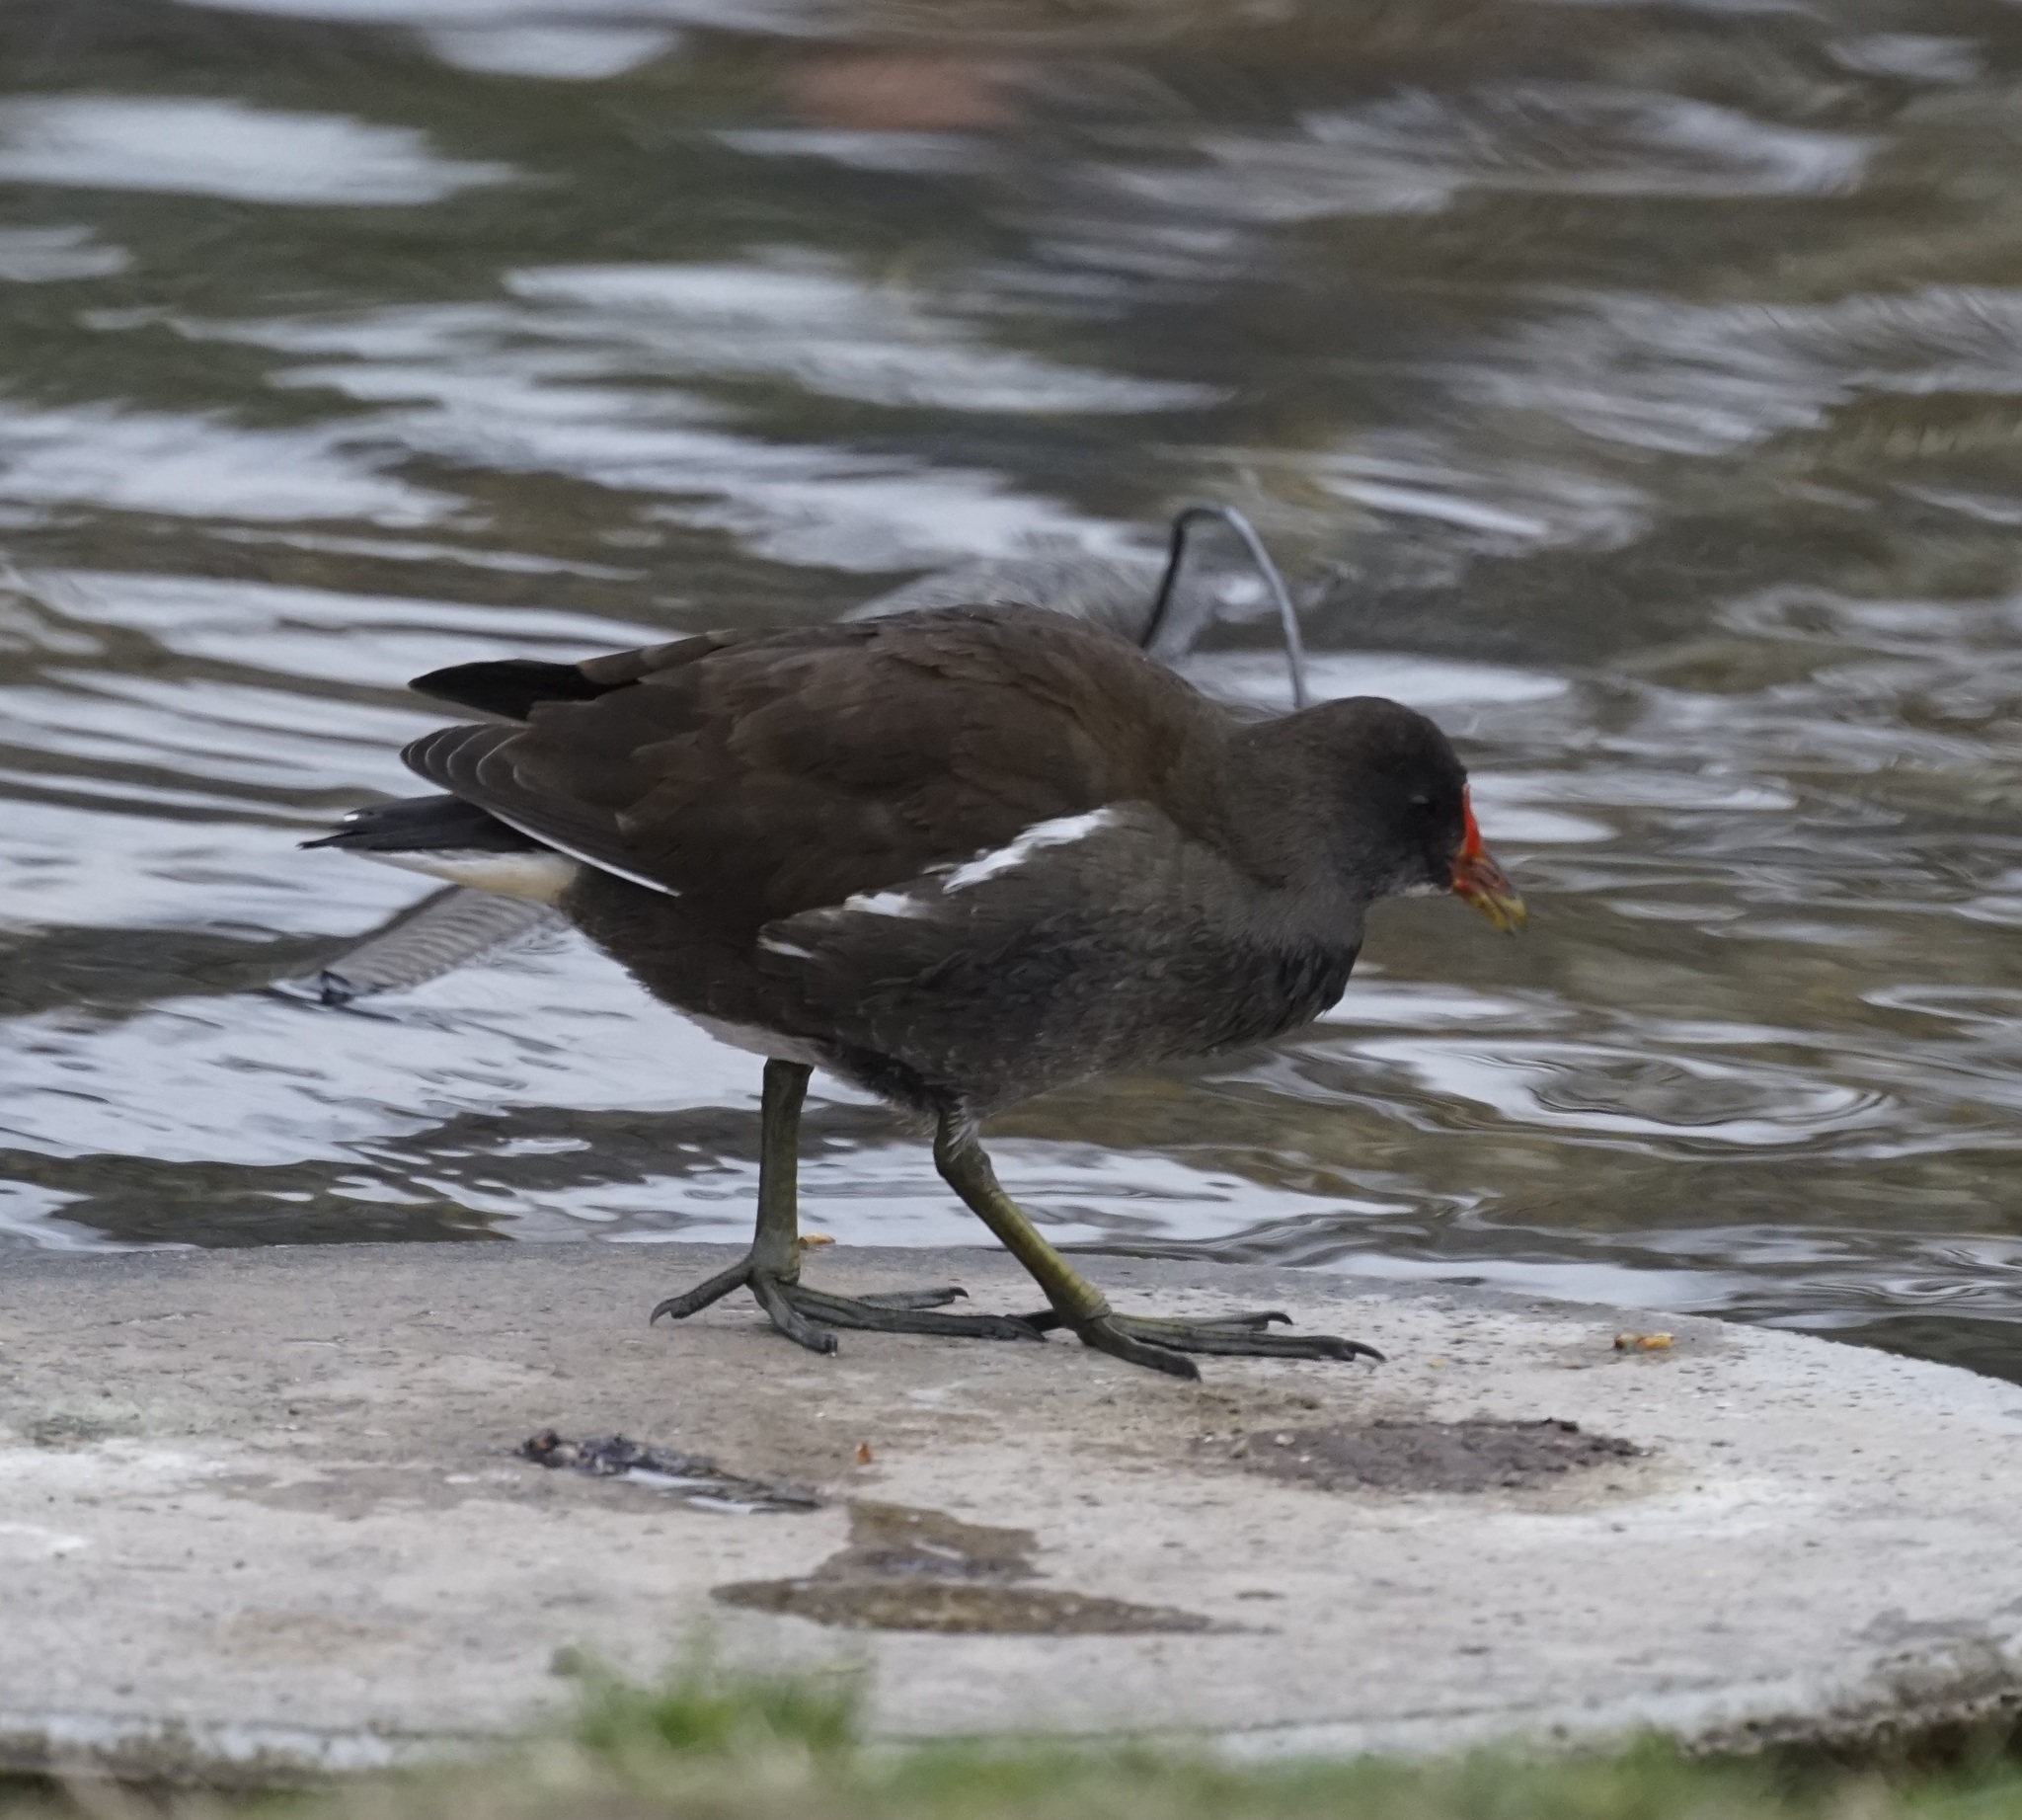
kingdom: Animalia
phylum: Chordata
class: Aves
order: Gruiformes
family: Rallidae
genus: Gallinula
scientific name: Gallinula chloropus
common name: Common moorhen
